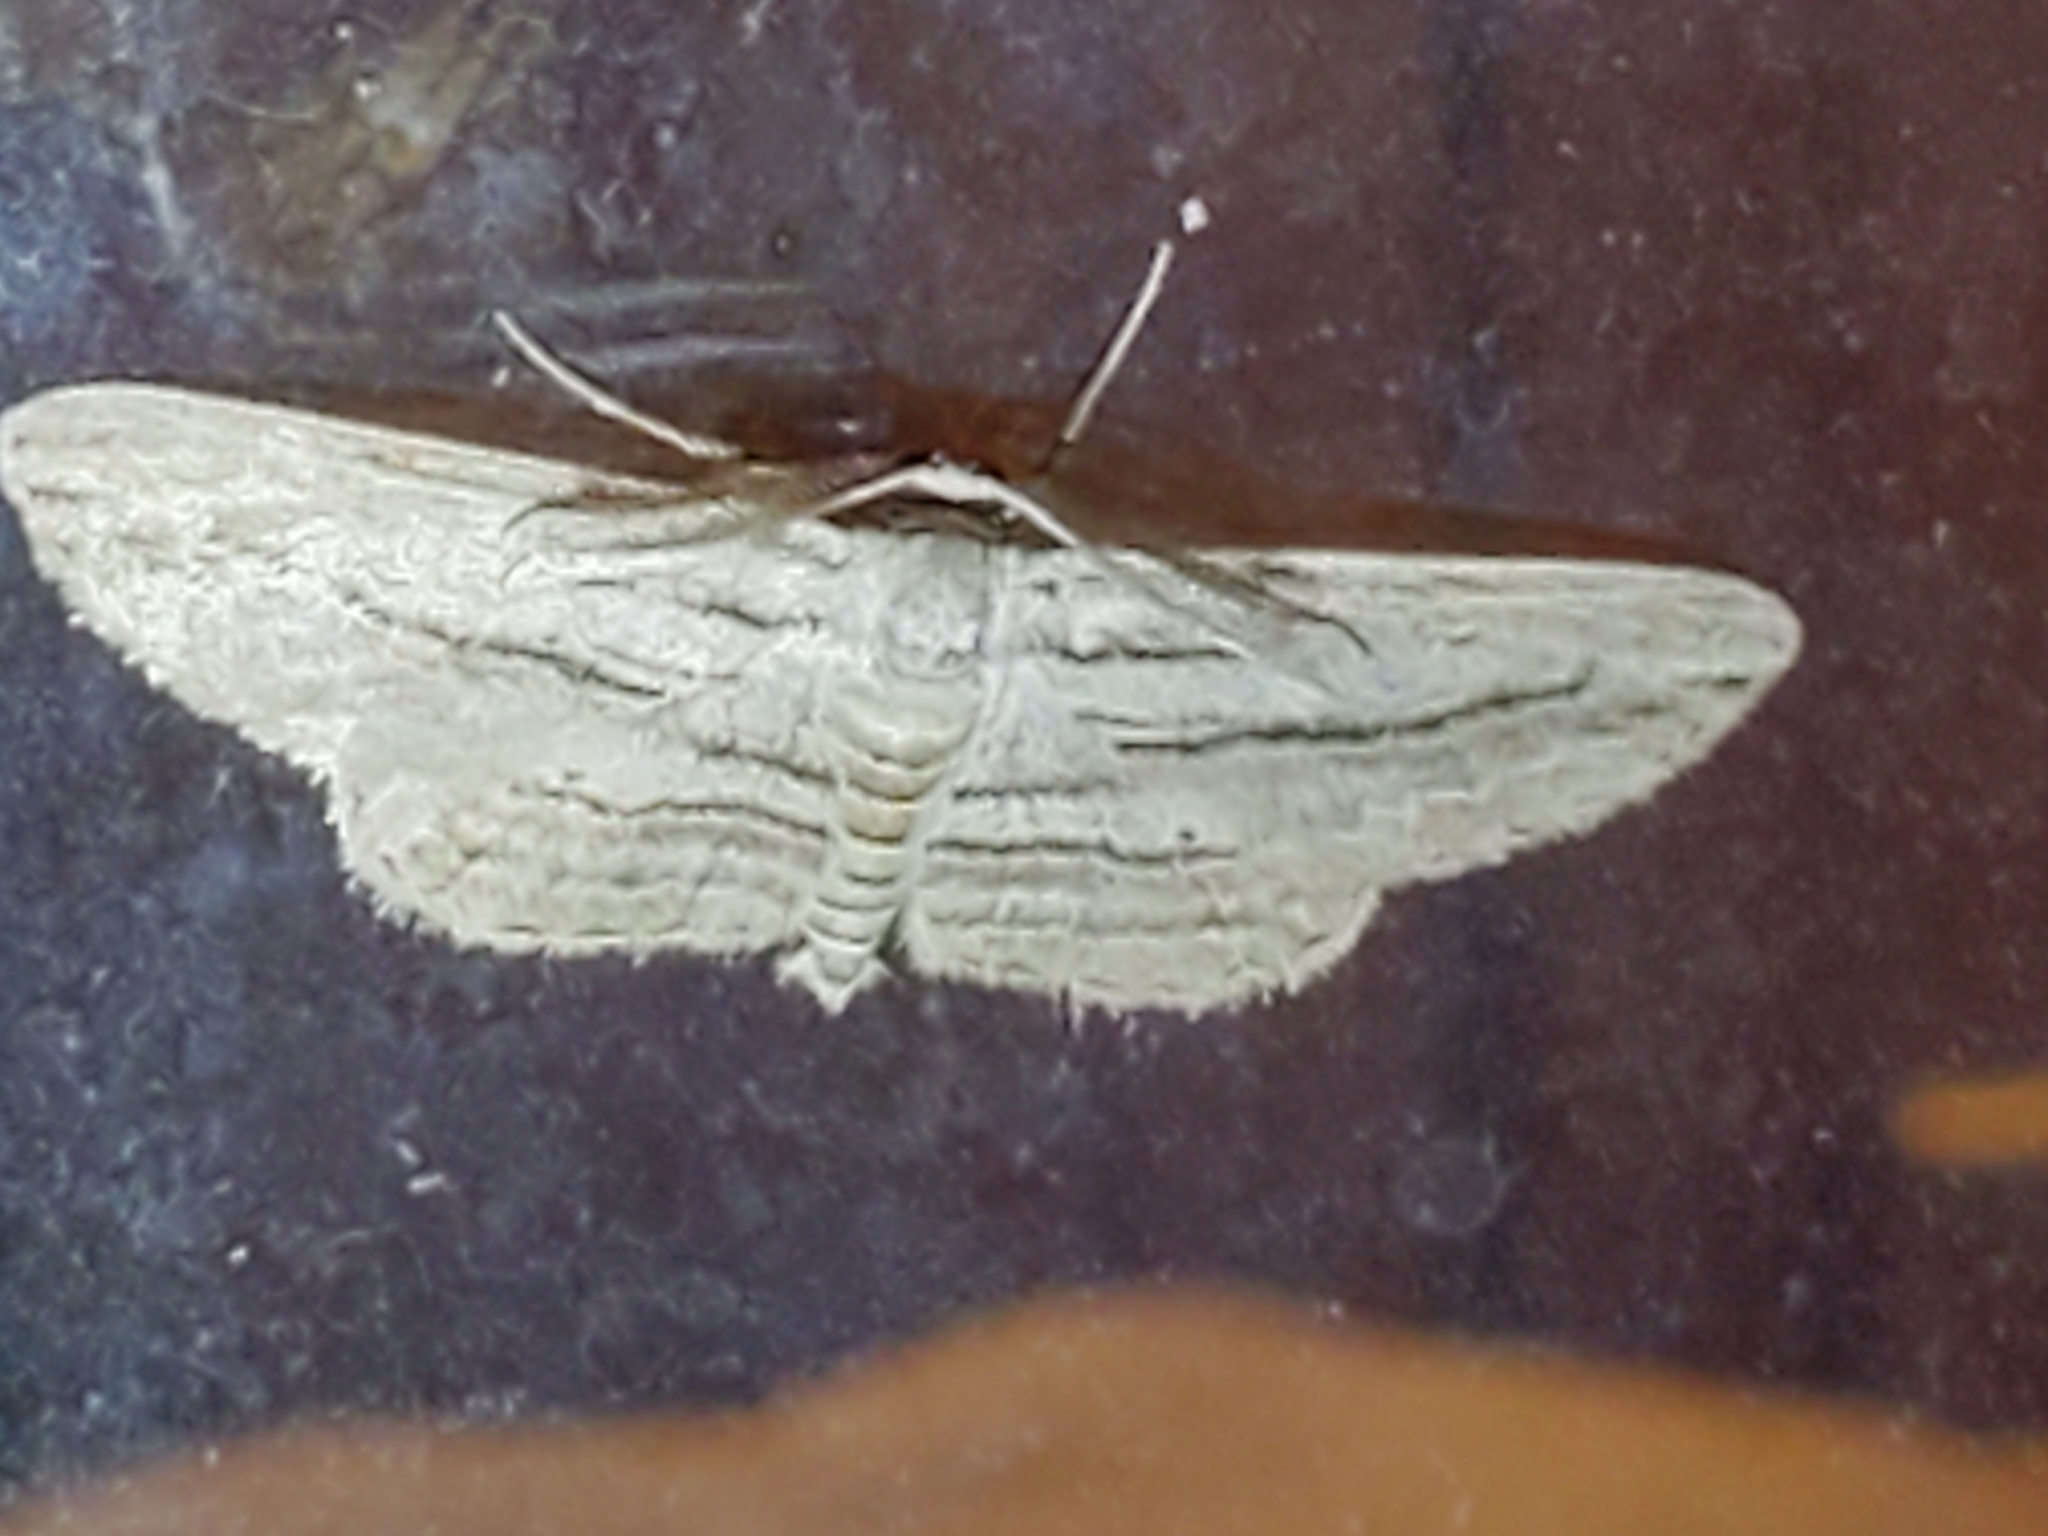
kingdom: Animalia
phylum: Arthropoda
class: Insecta
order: Lepidoptera
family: Geometridae
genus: Glena
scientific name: Glena quinquelinearia
